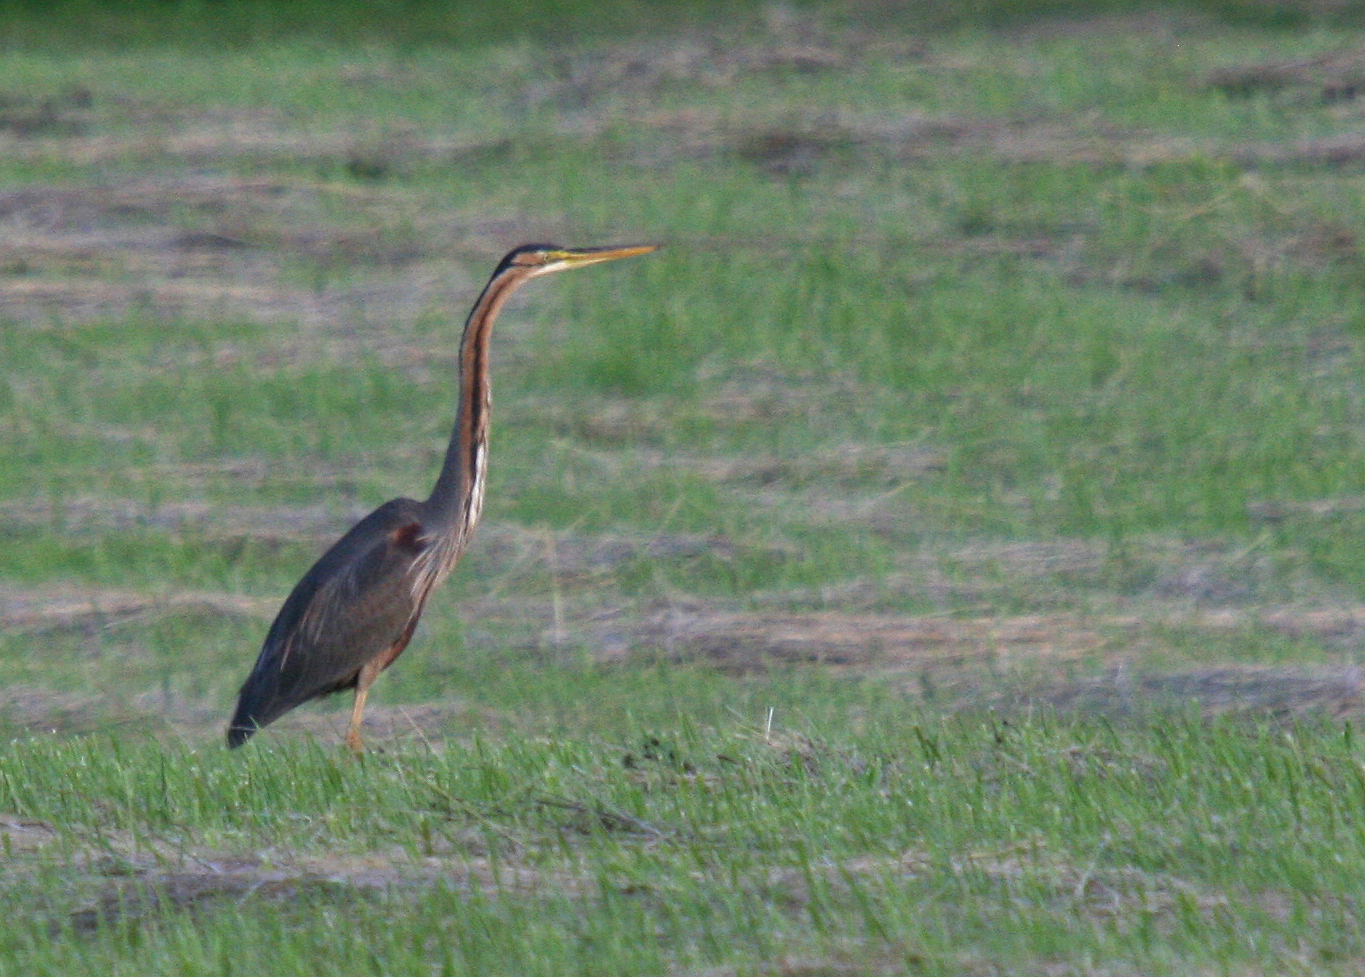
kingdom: Animalia
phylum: Chordata
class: Aves
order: Pelecaniformes
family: Ardeidae
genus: Ardea
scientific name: Ardea purpurea
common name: Purple heron
